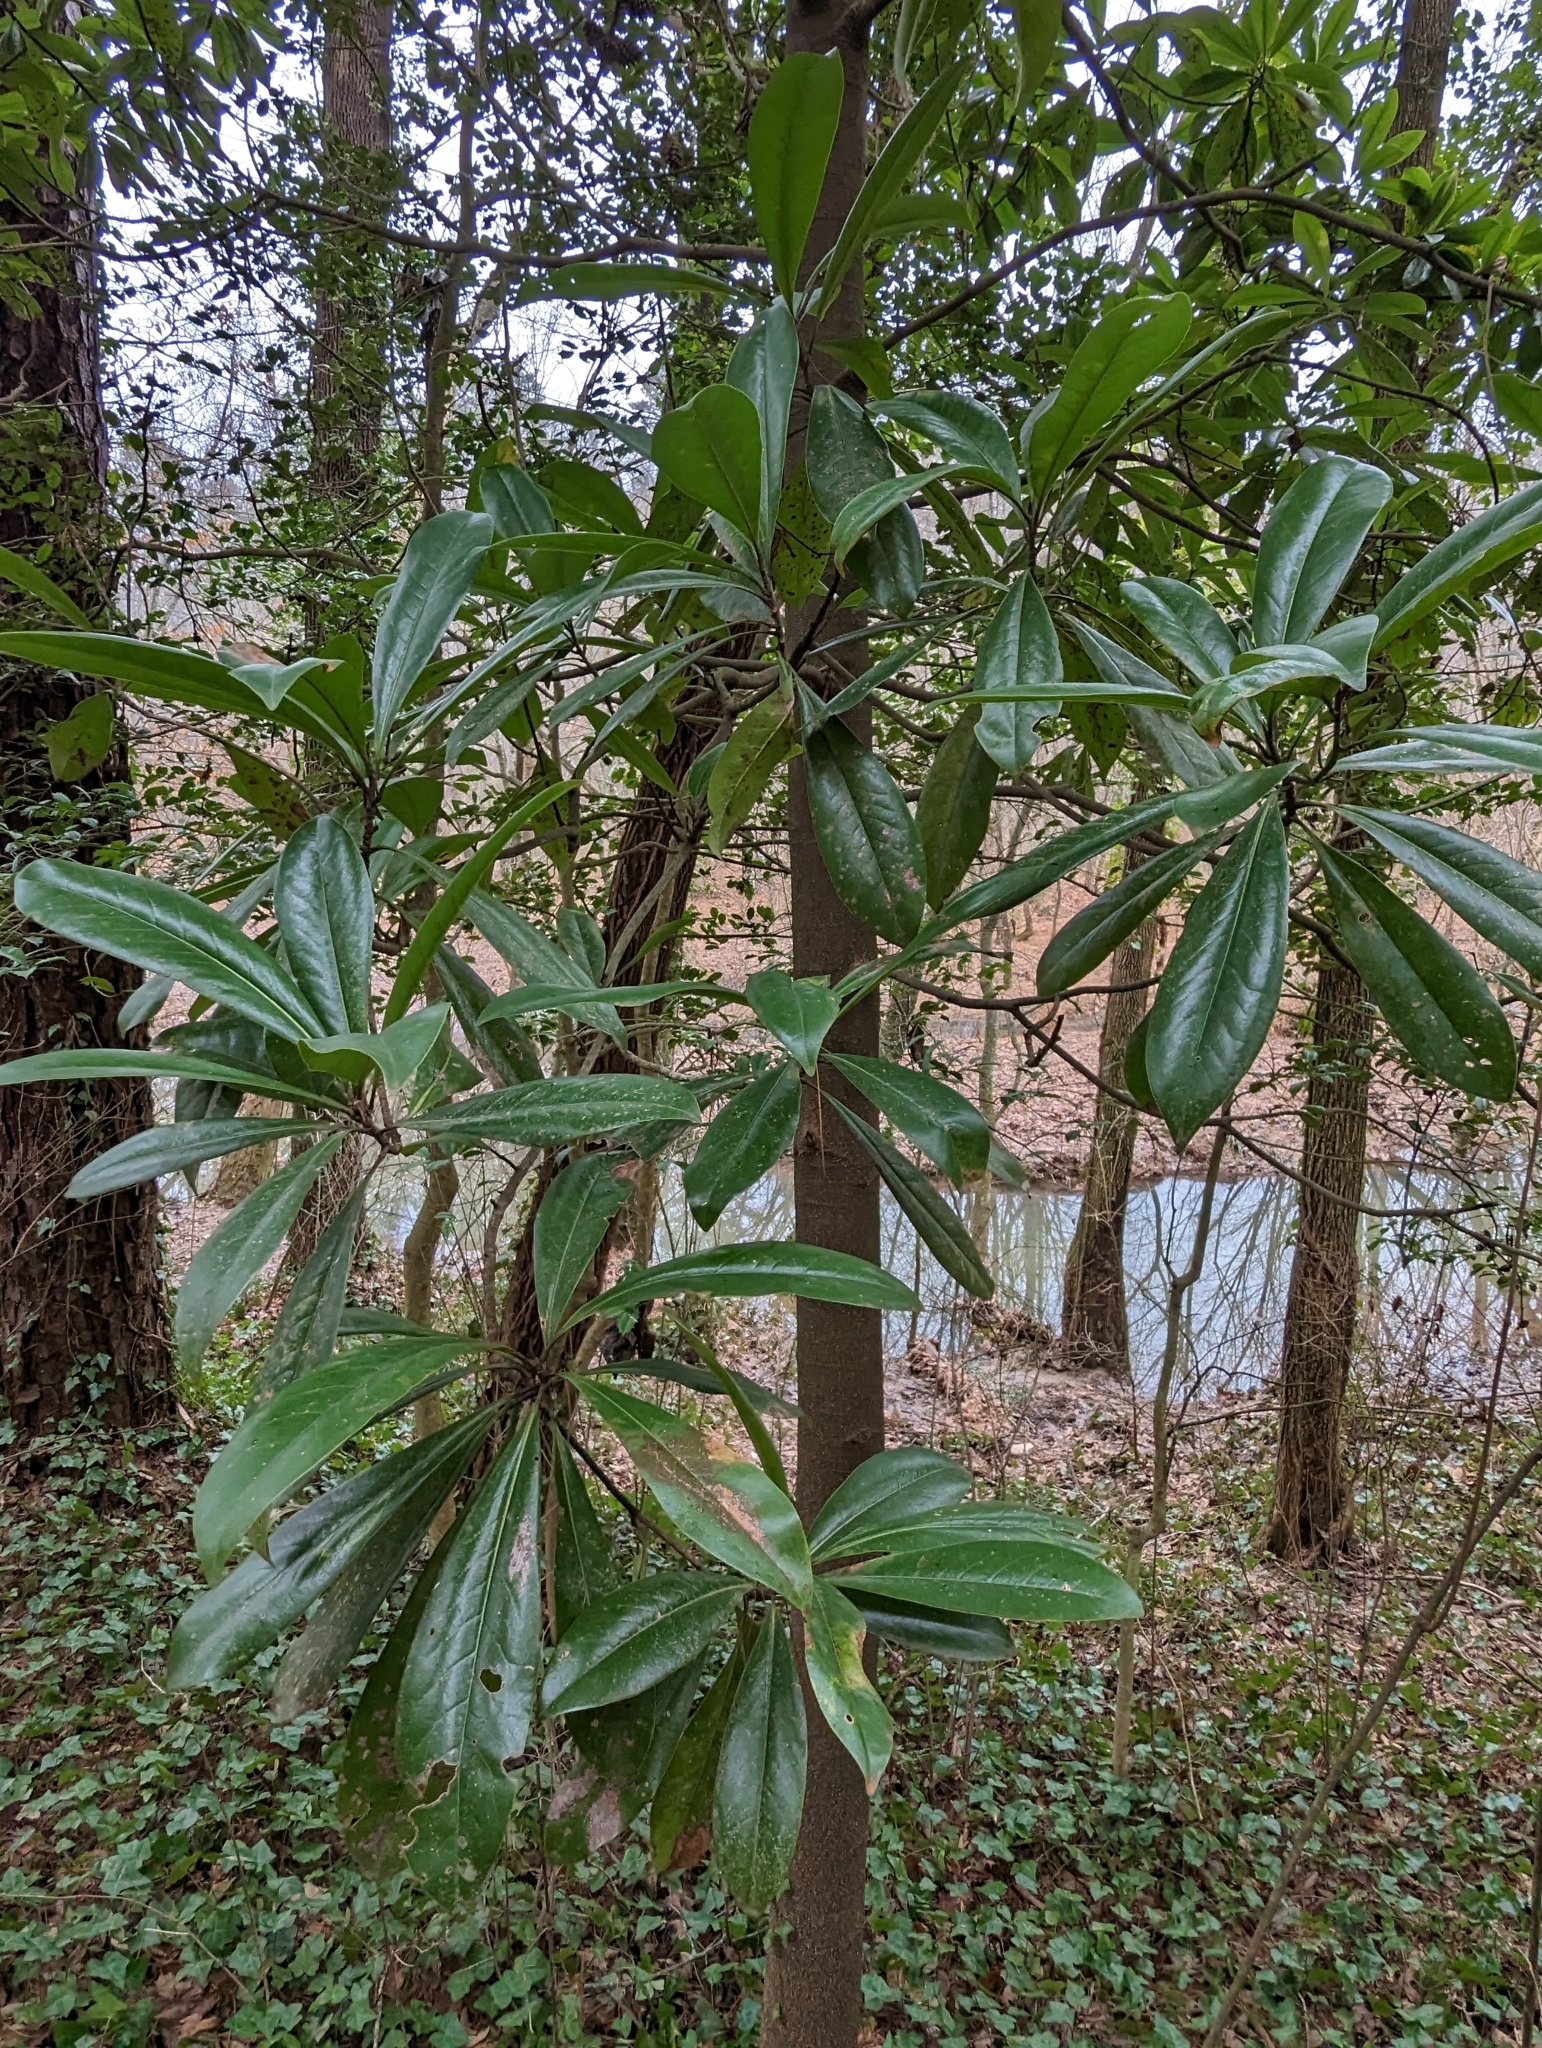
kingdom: Plantae
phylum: Tracheophyta
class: Magnoliopsida
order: Magnoliales
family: Magnoliaceae
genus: Magnolia
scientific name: Magnolia grandiflora
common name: Southern magnolia
